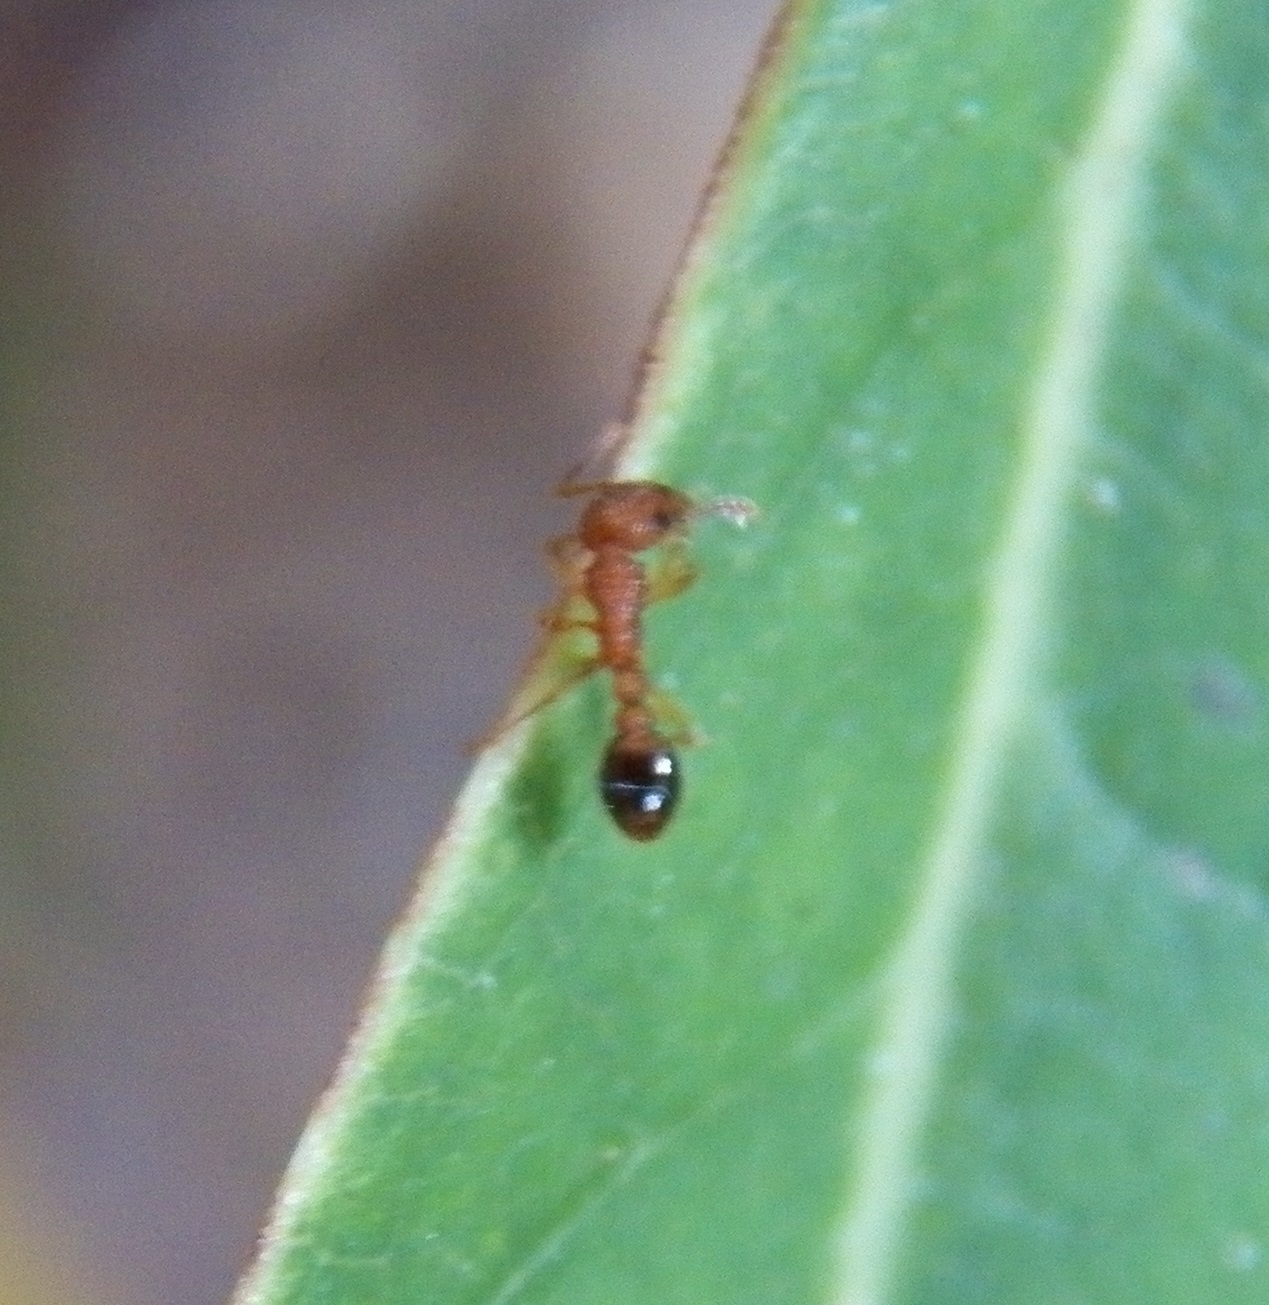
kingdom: Animalia
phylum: Arthropoda
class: Insecta
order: Hymenoptera
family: Formicidae
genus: Tetramorium
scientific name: Tetramorium bicarinatum
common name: Guinea ant
